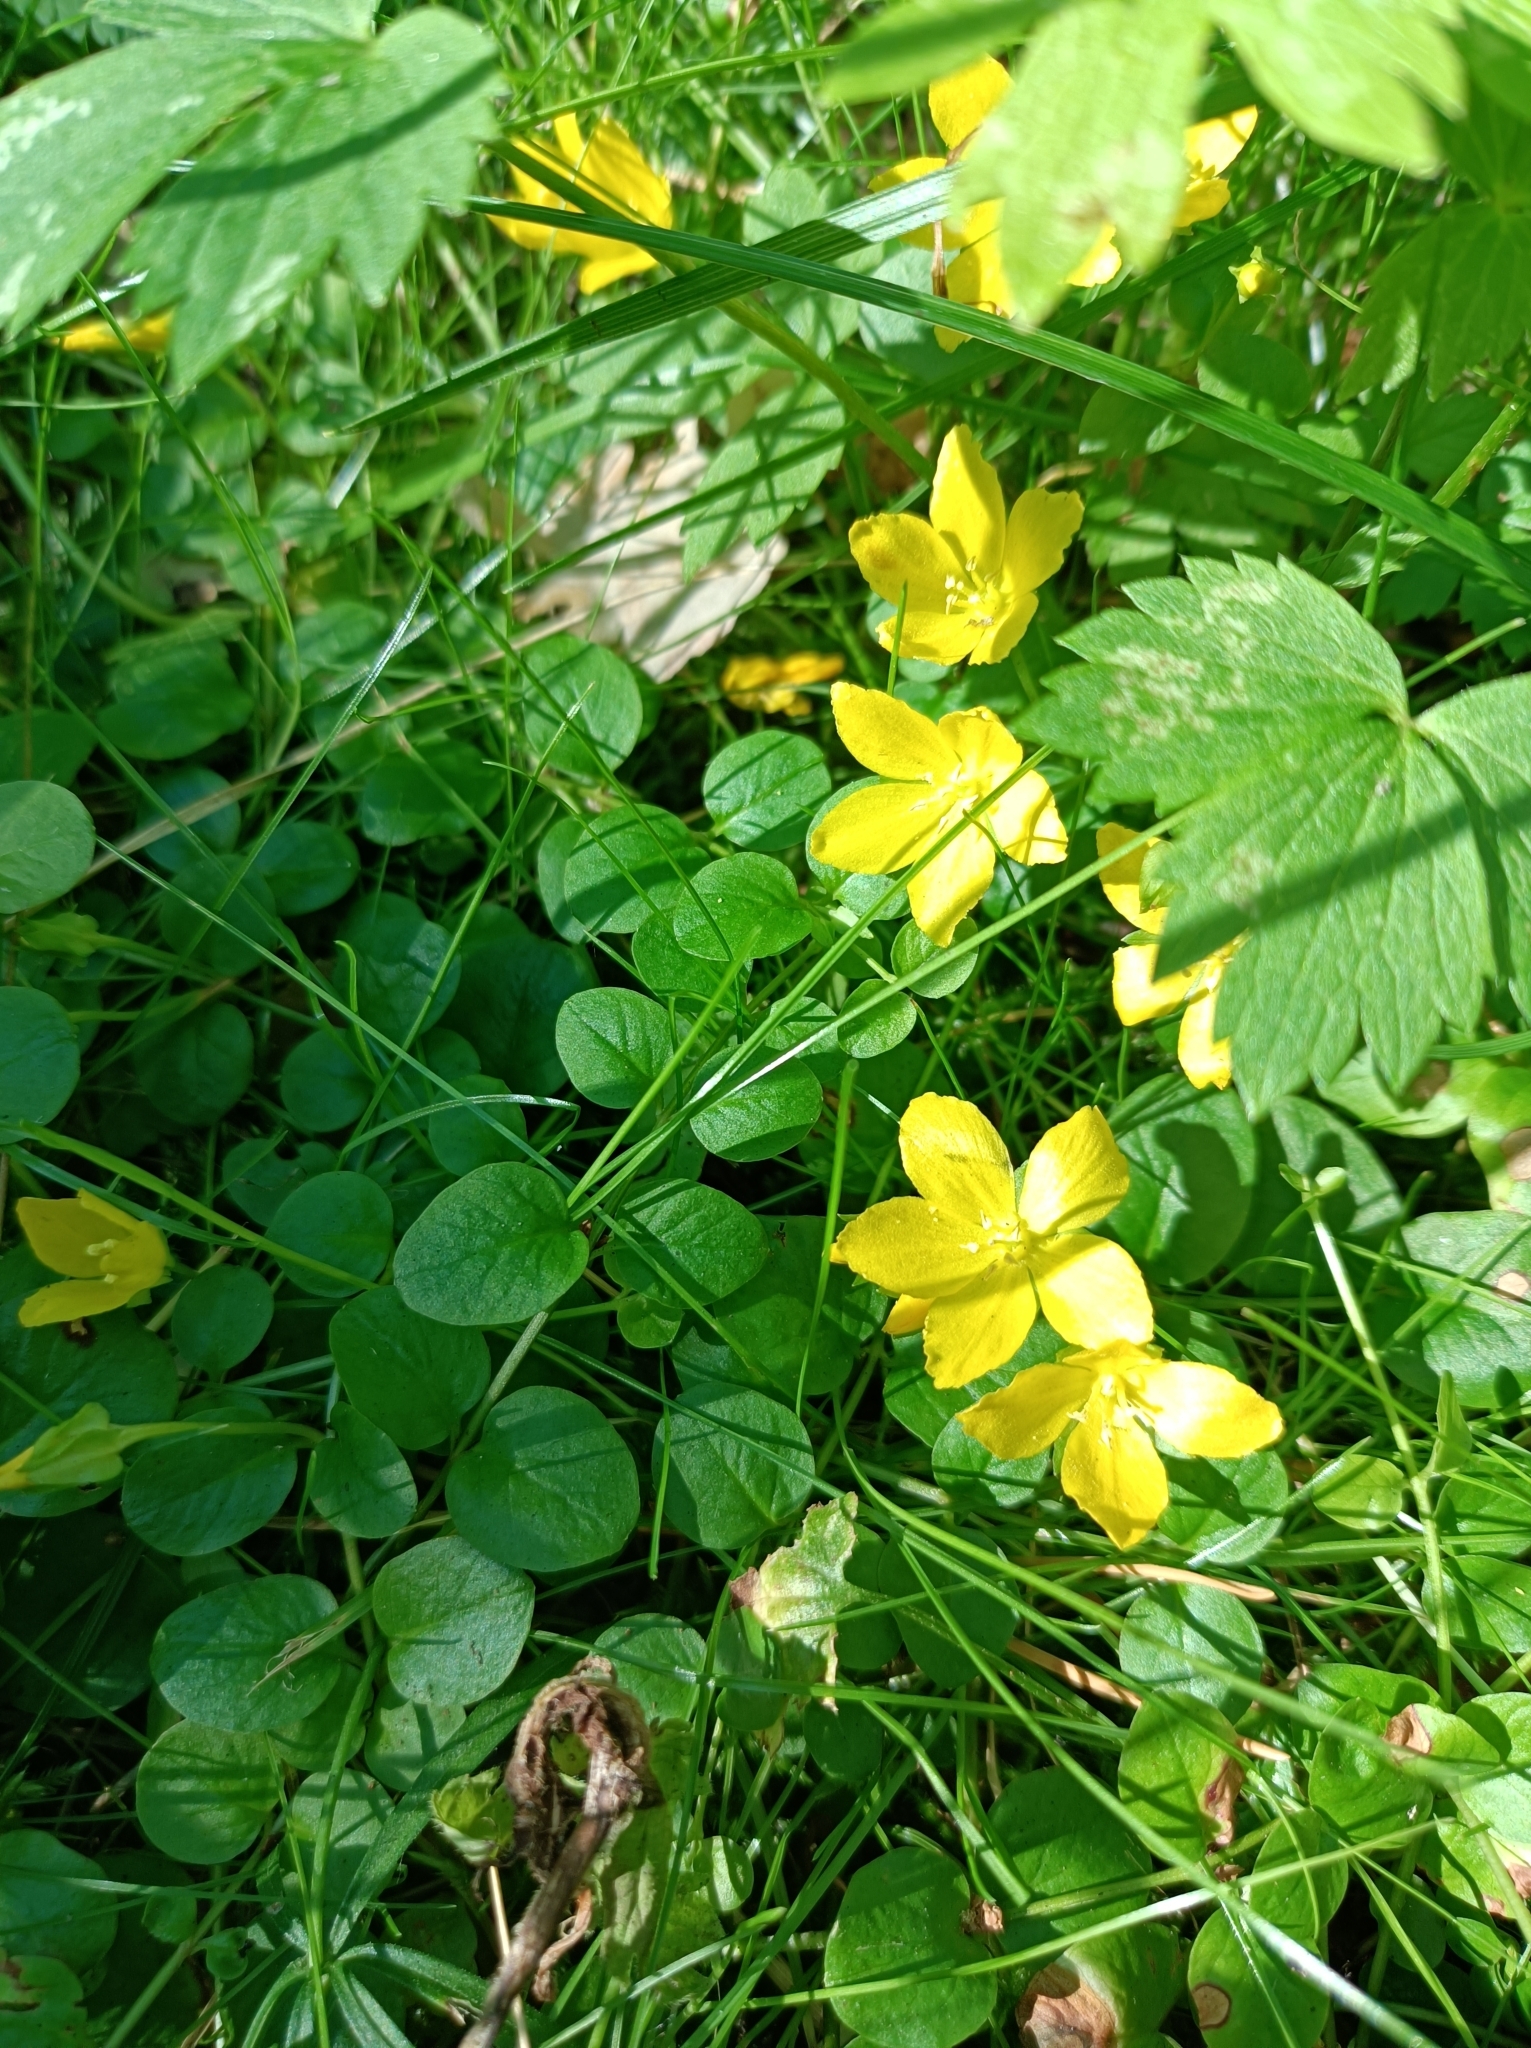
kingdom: Plantae
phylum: Tracheophyta
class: Magnoliopsida
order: Ericales
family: Primulaceae
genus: Lysimachia
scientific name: Lysimachia nummularia
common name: Moneywort
